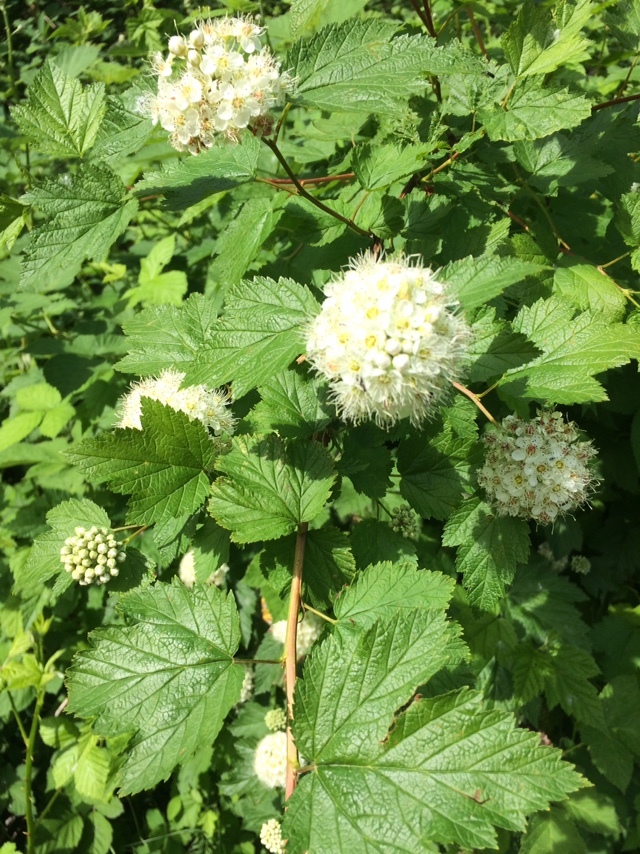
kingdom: Plantae
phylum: Tracheophyta
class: Magnoliopsida
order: Rosales
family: Rosaceae
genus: Physocarpus
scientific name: Physocarpus capitatus
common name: Pacific ninebark
